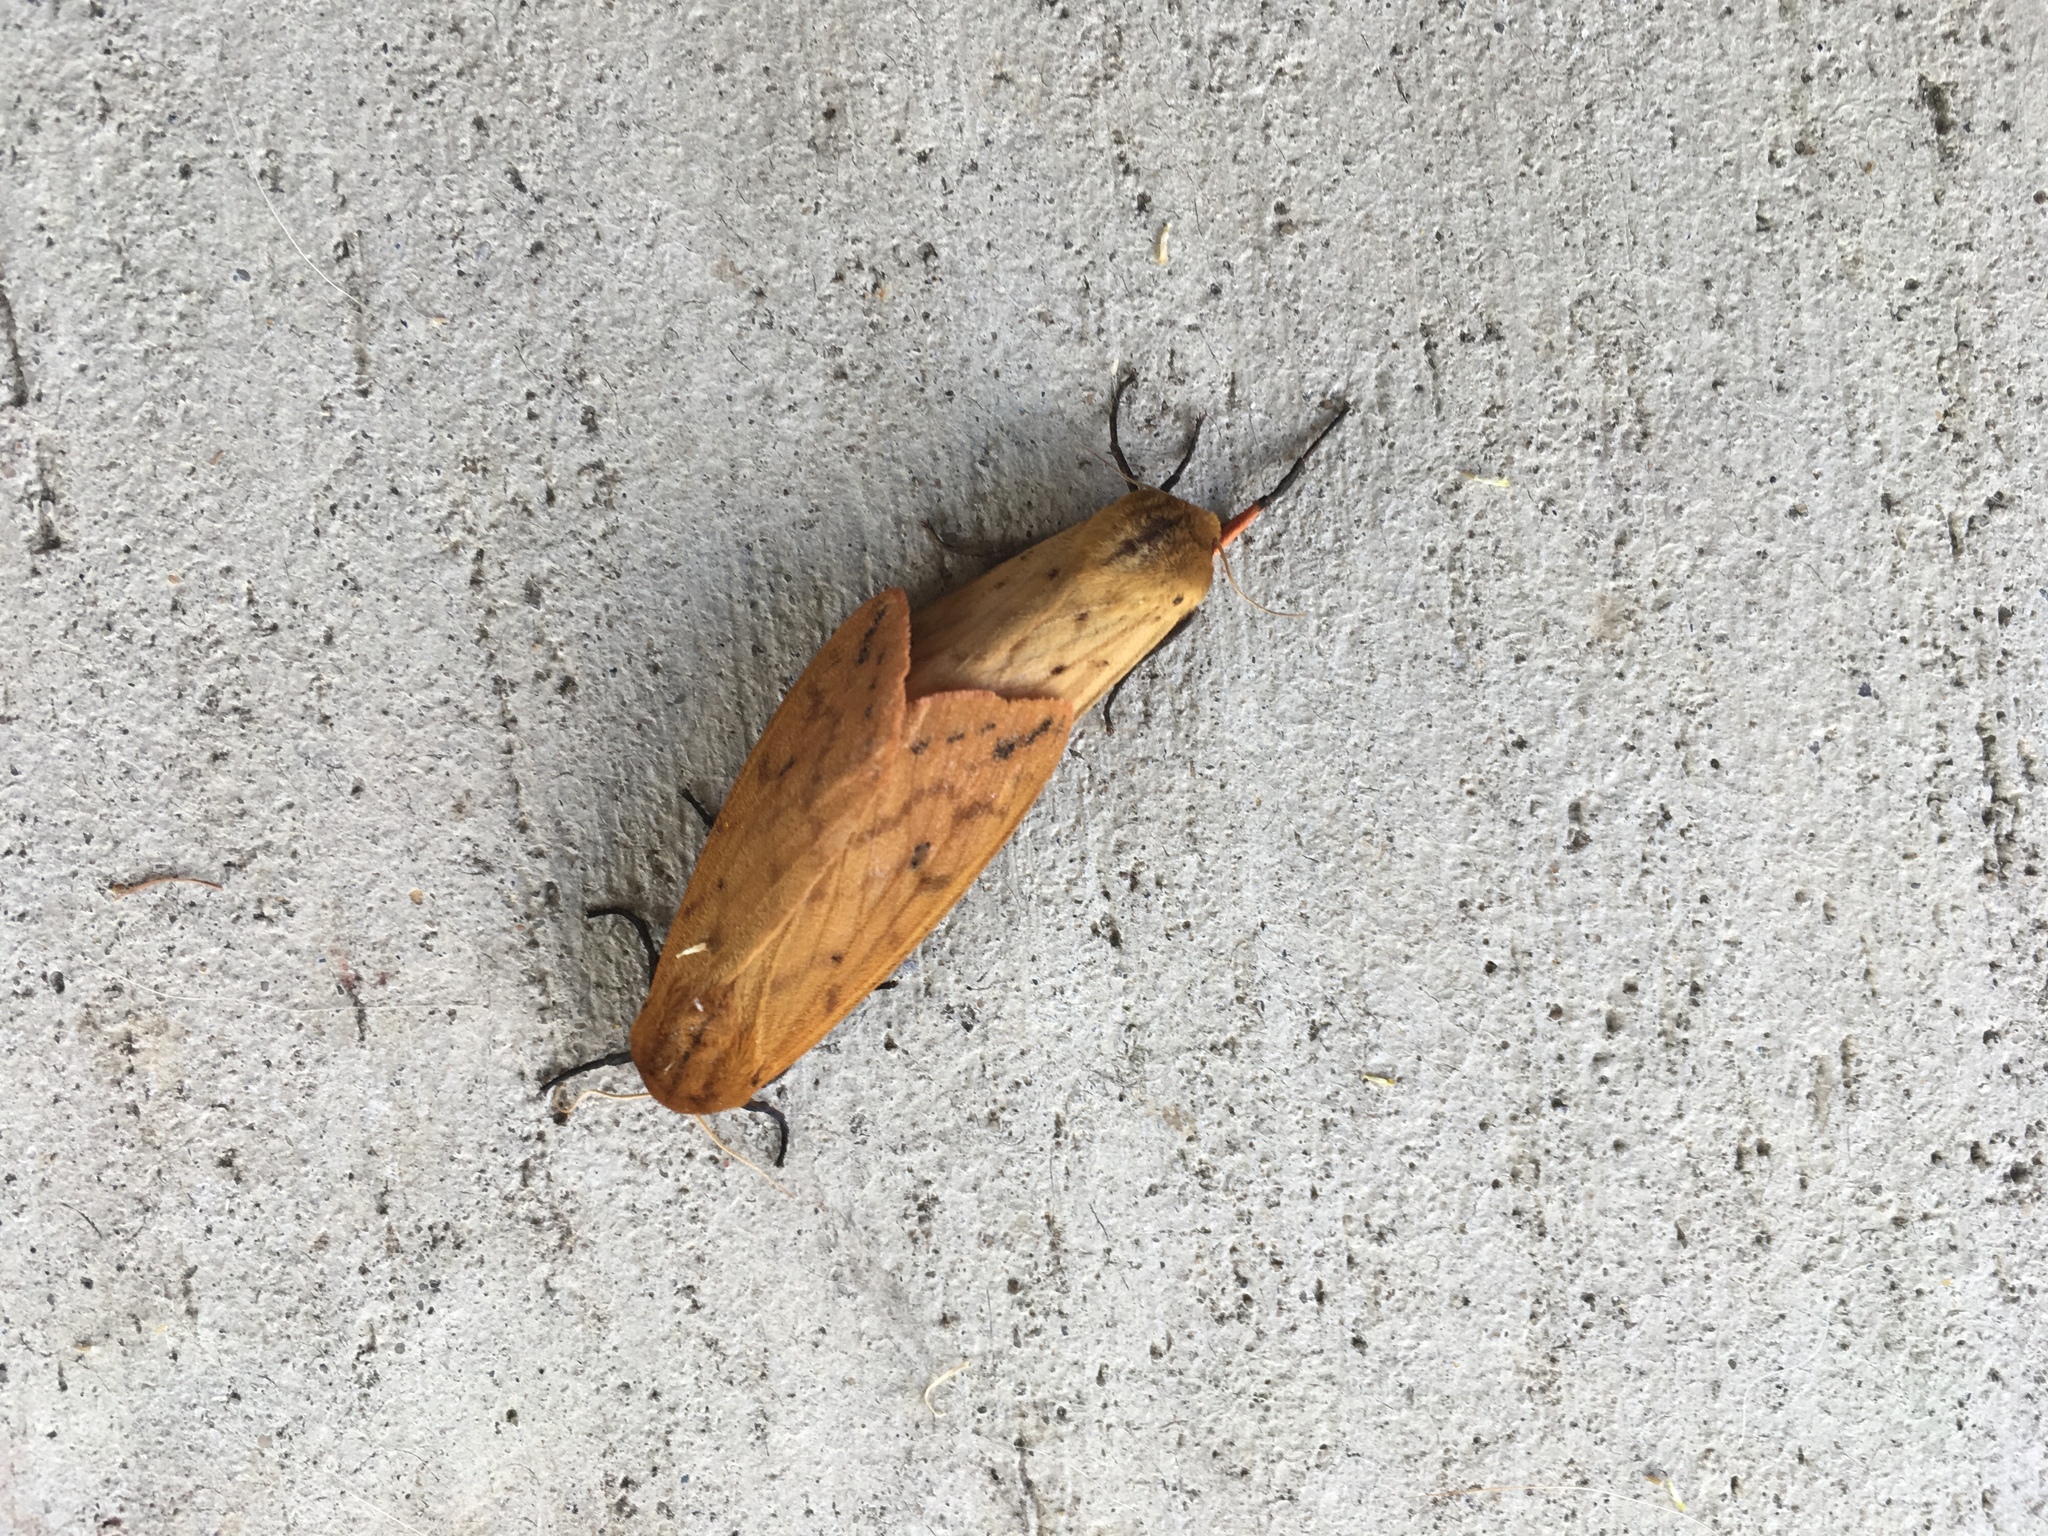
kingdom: Animalia
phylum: Arthropoda
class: Insecta
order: Lepidoptera
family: Erebidae
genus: Pyrrharctia
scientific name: Pyrrharctia isabella
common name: Isabella tiger moth
